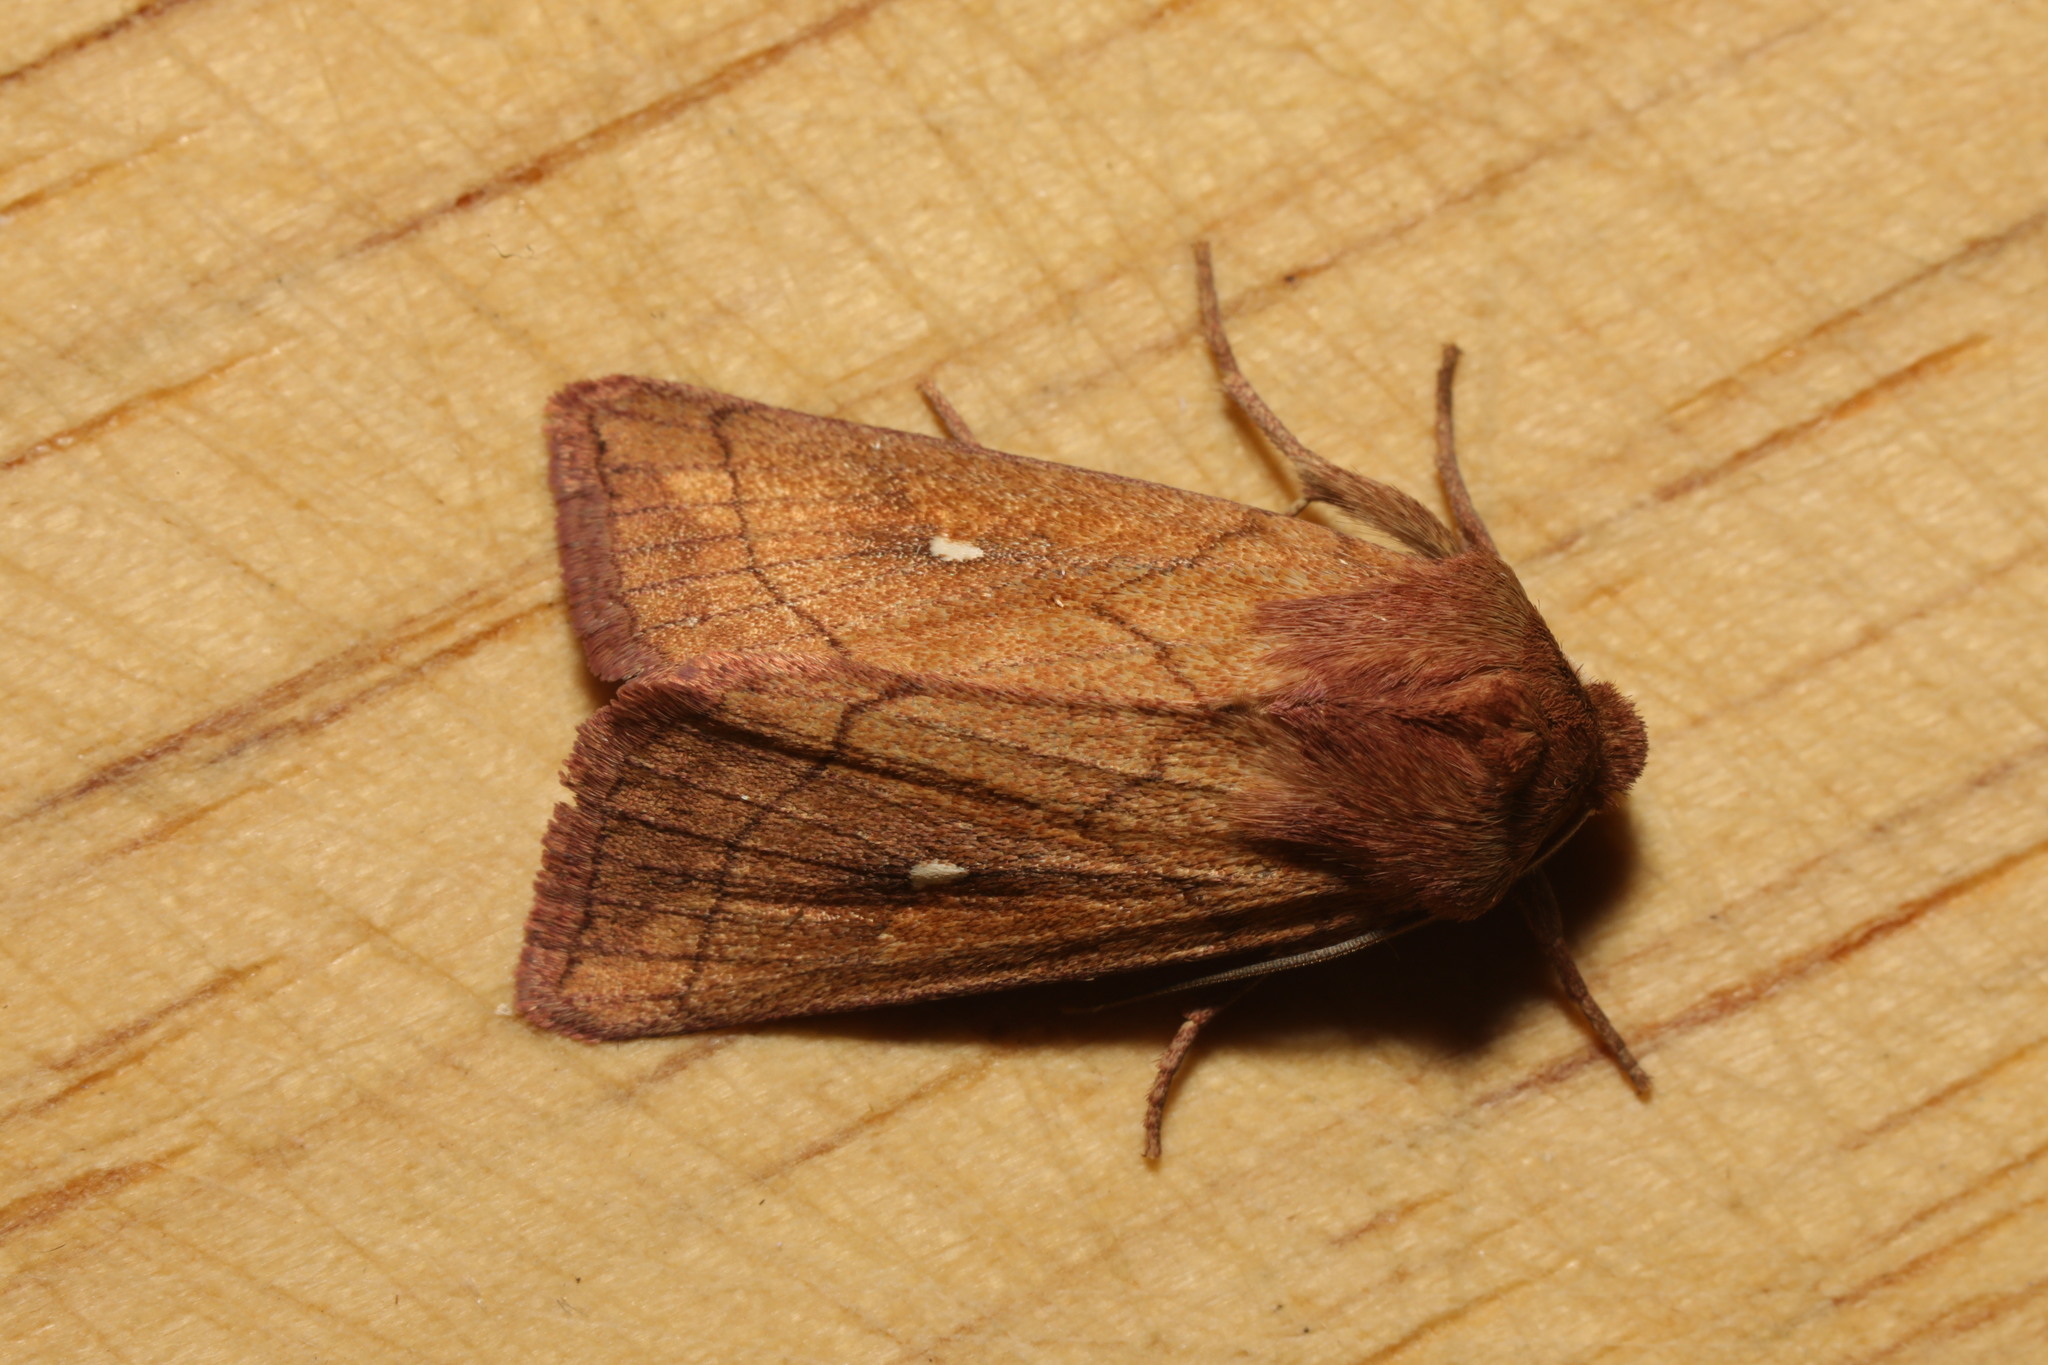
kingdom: Animalia
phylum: Arthropoda
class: Insecta
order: Lepidoptera
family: Noctuidae
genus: Mythimna
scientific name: Mythimna conigera
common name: Brown-line bright-eye
